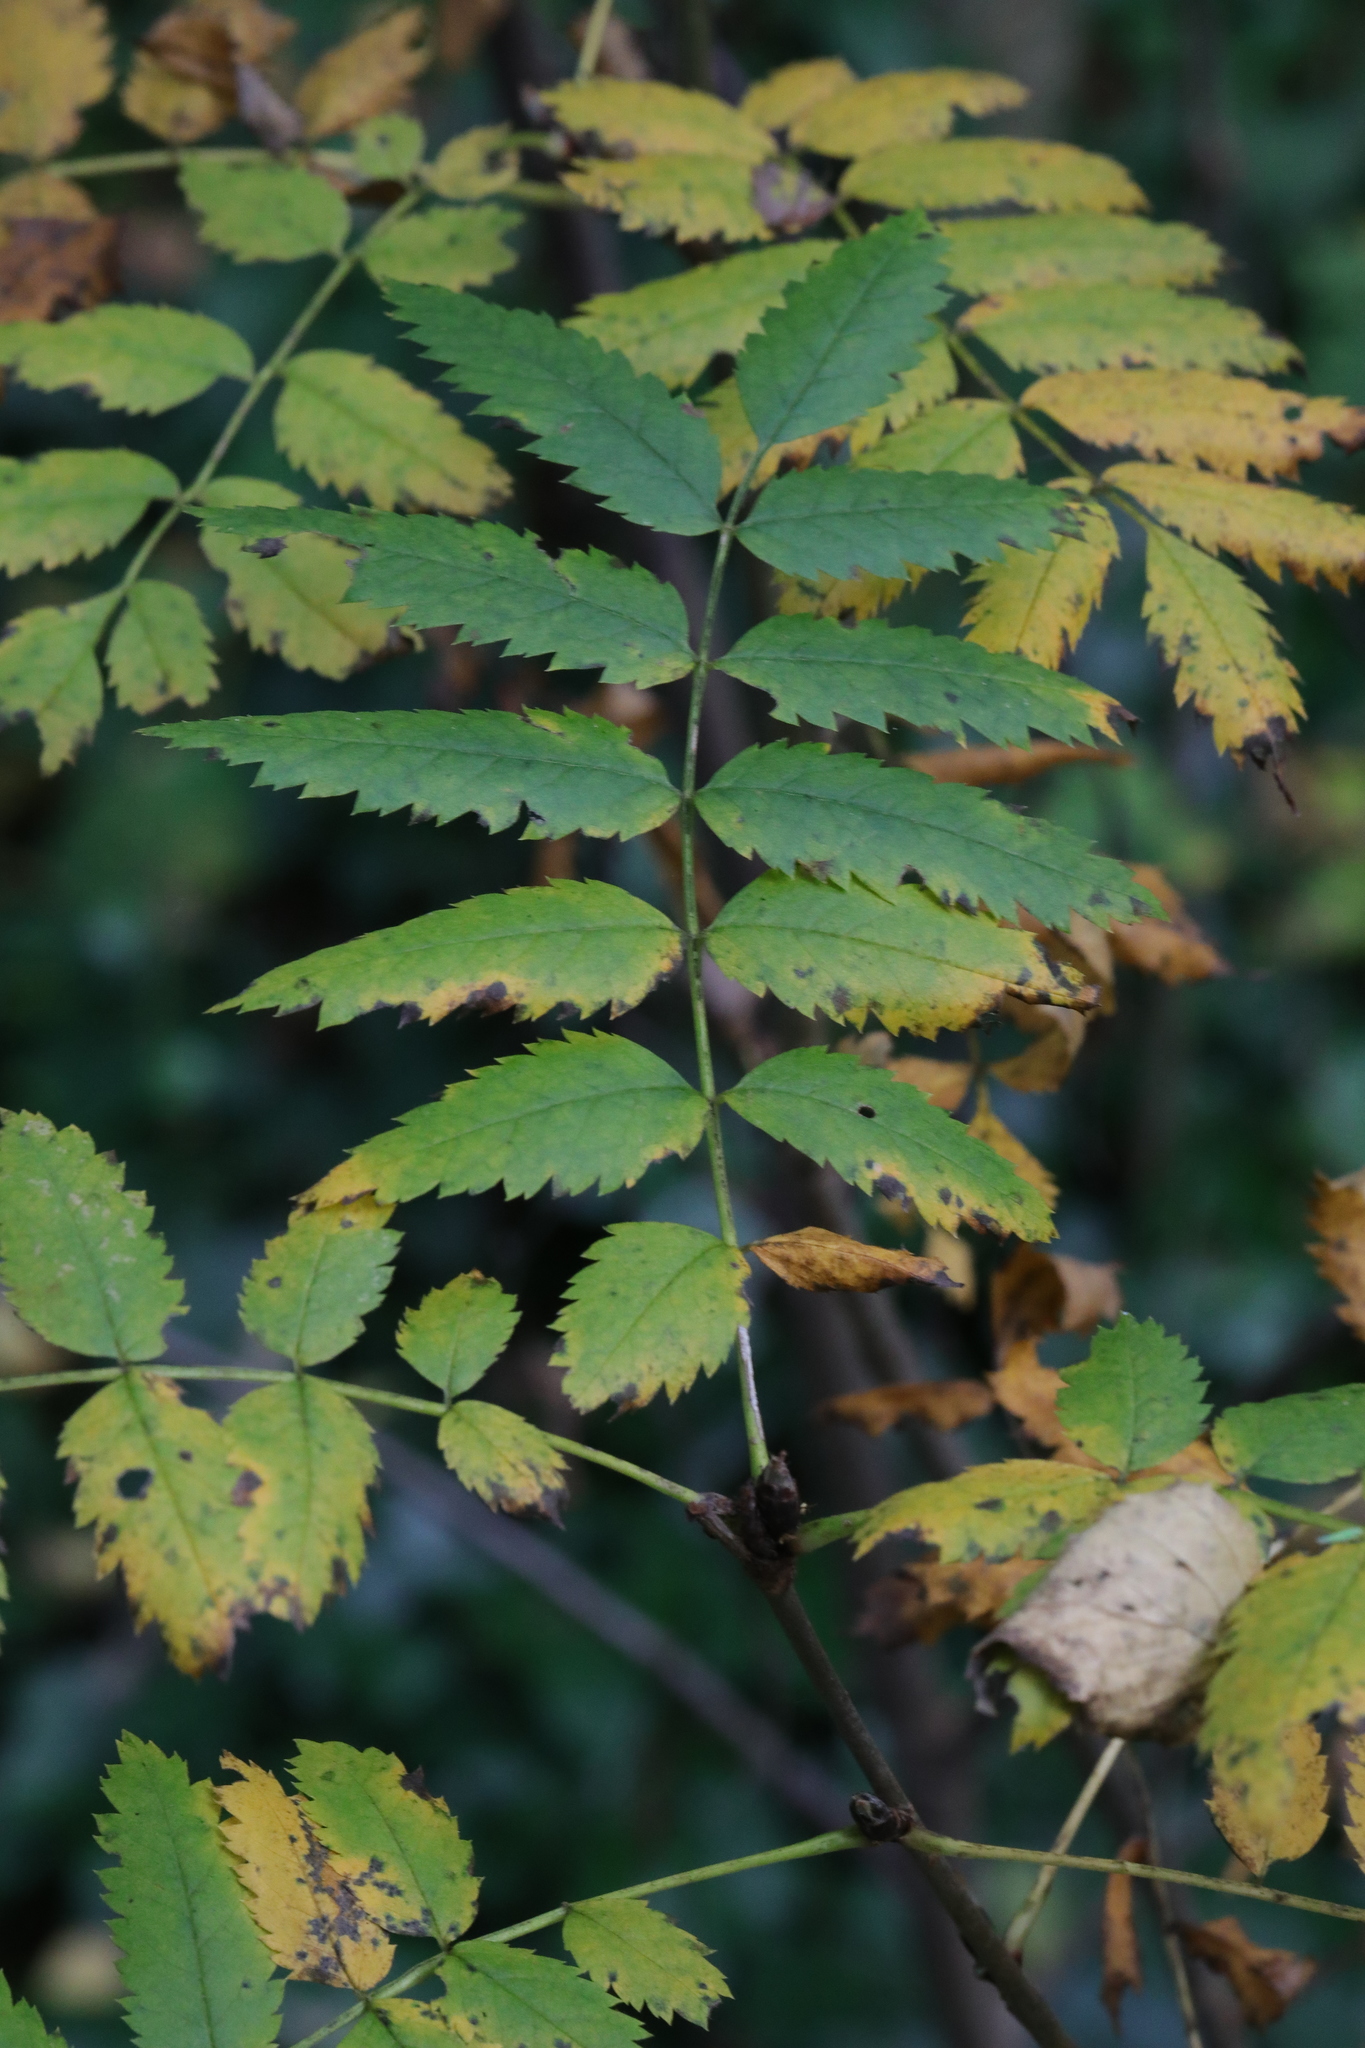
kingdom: Plantae
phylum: Tracheophyta
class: Magnoliopsida
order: Rosales
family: Rosaceae
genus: Sorbus
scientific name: Sorbus aucuparia
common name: Rowan
